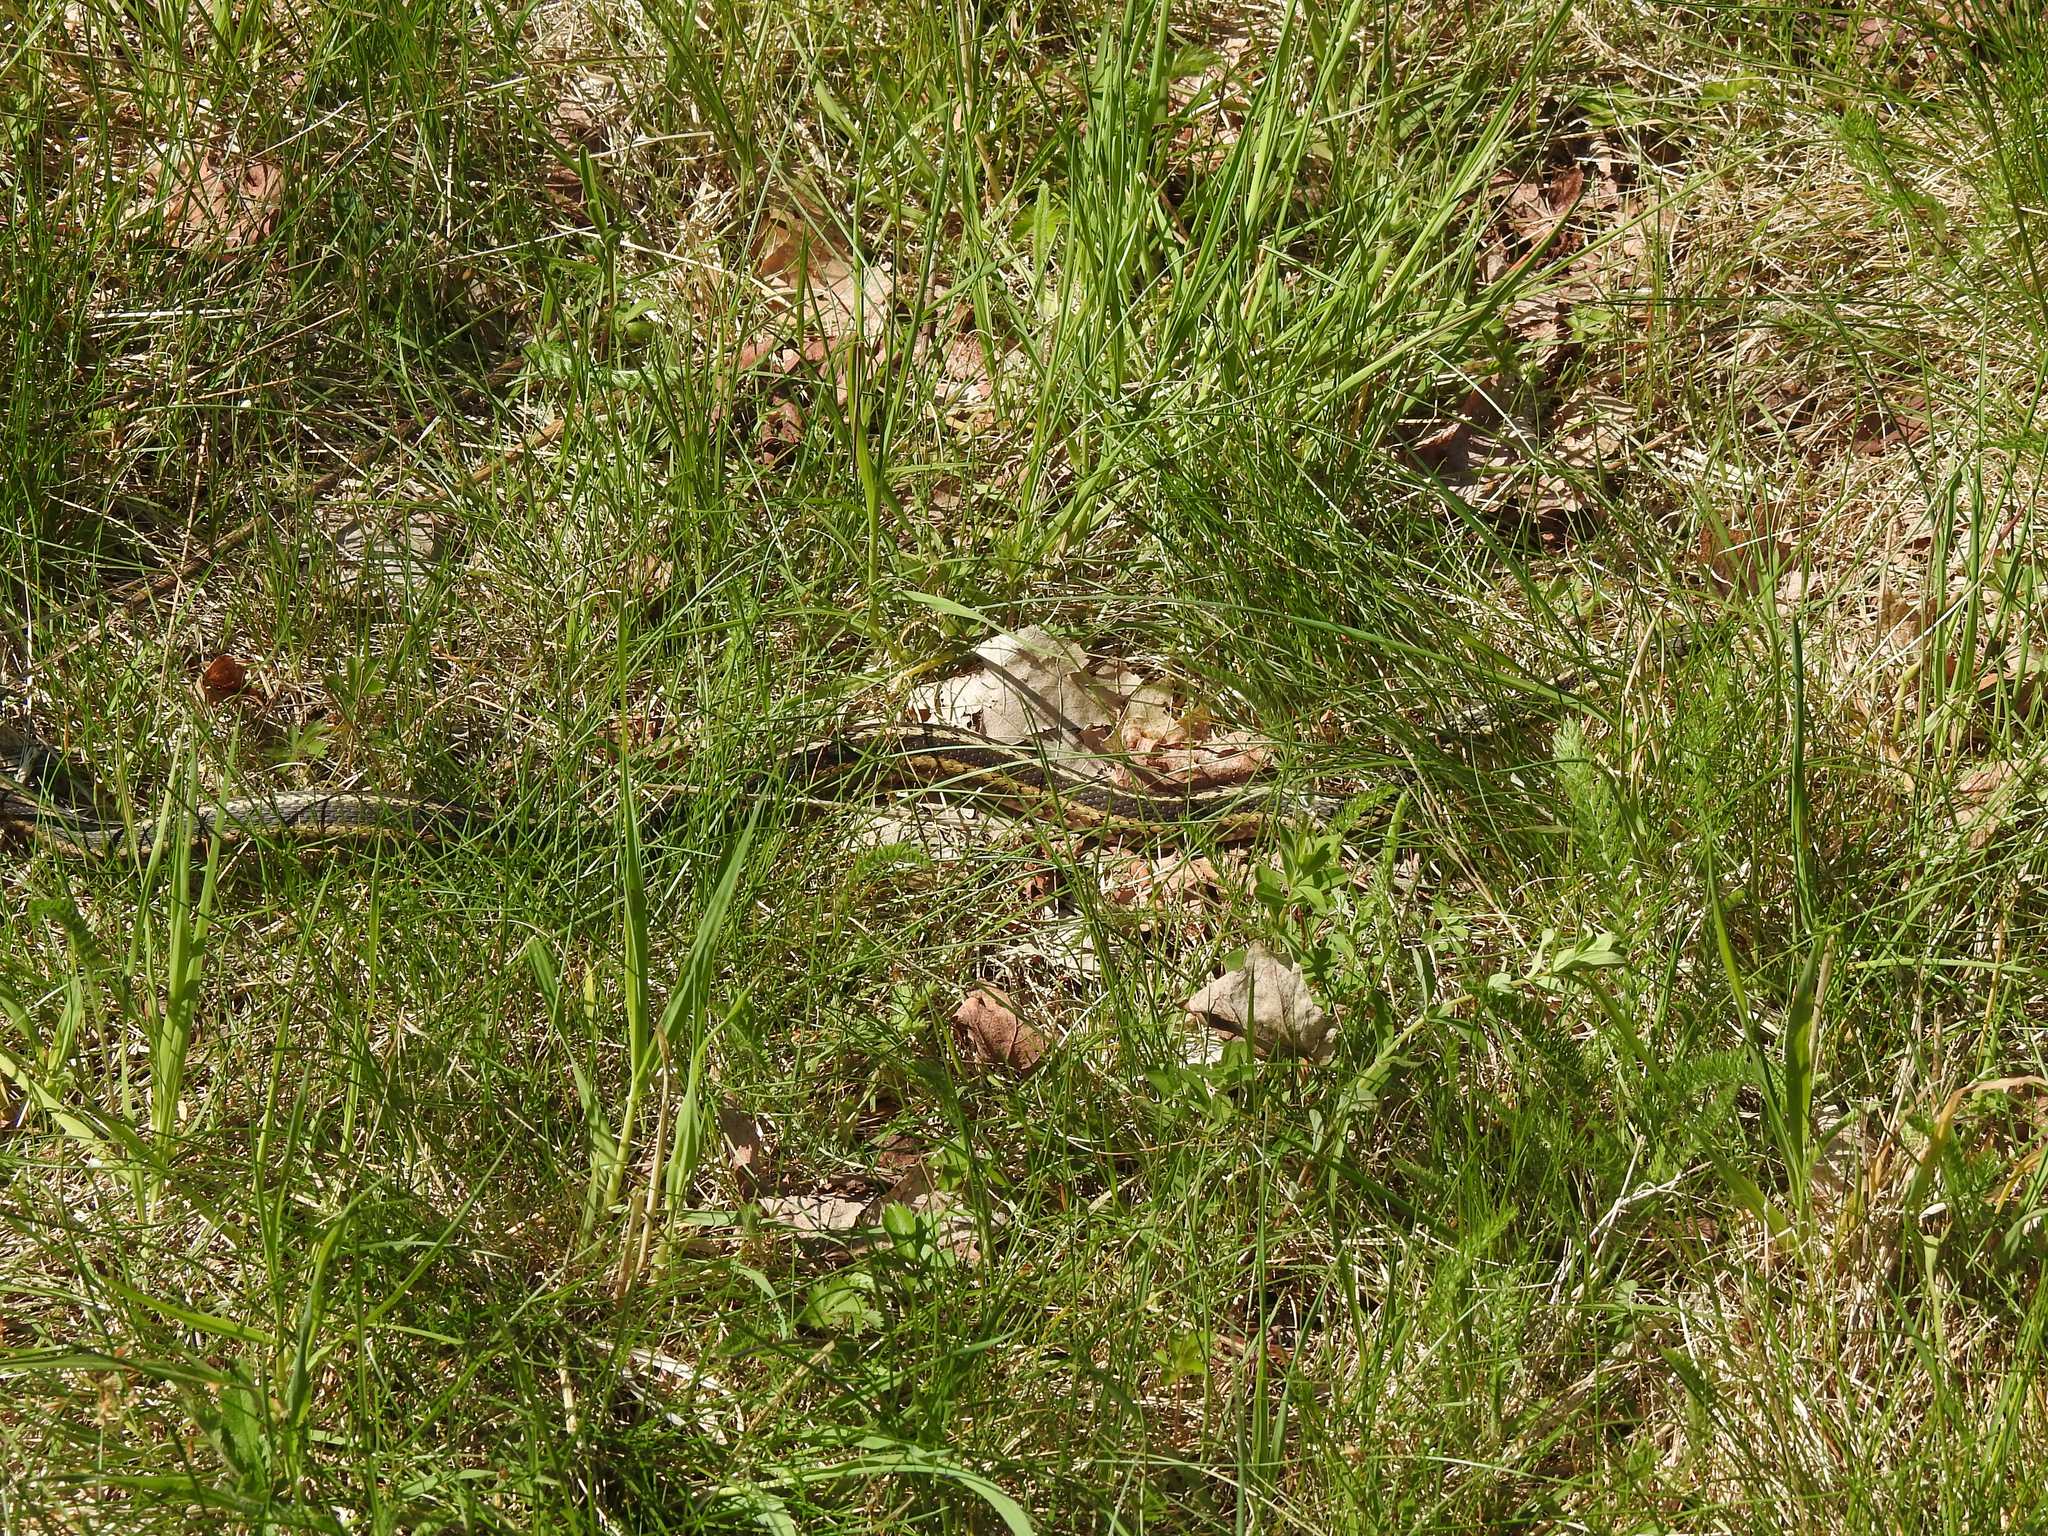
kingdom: Animalia
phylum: Chordata
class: Squamata
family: Colubridae
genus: Thamnophis
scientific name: Thamnophis sirtalis
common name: Common garter snake
